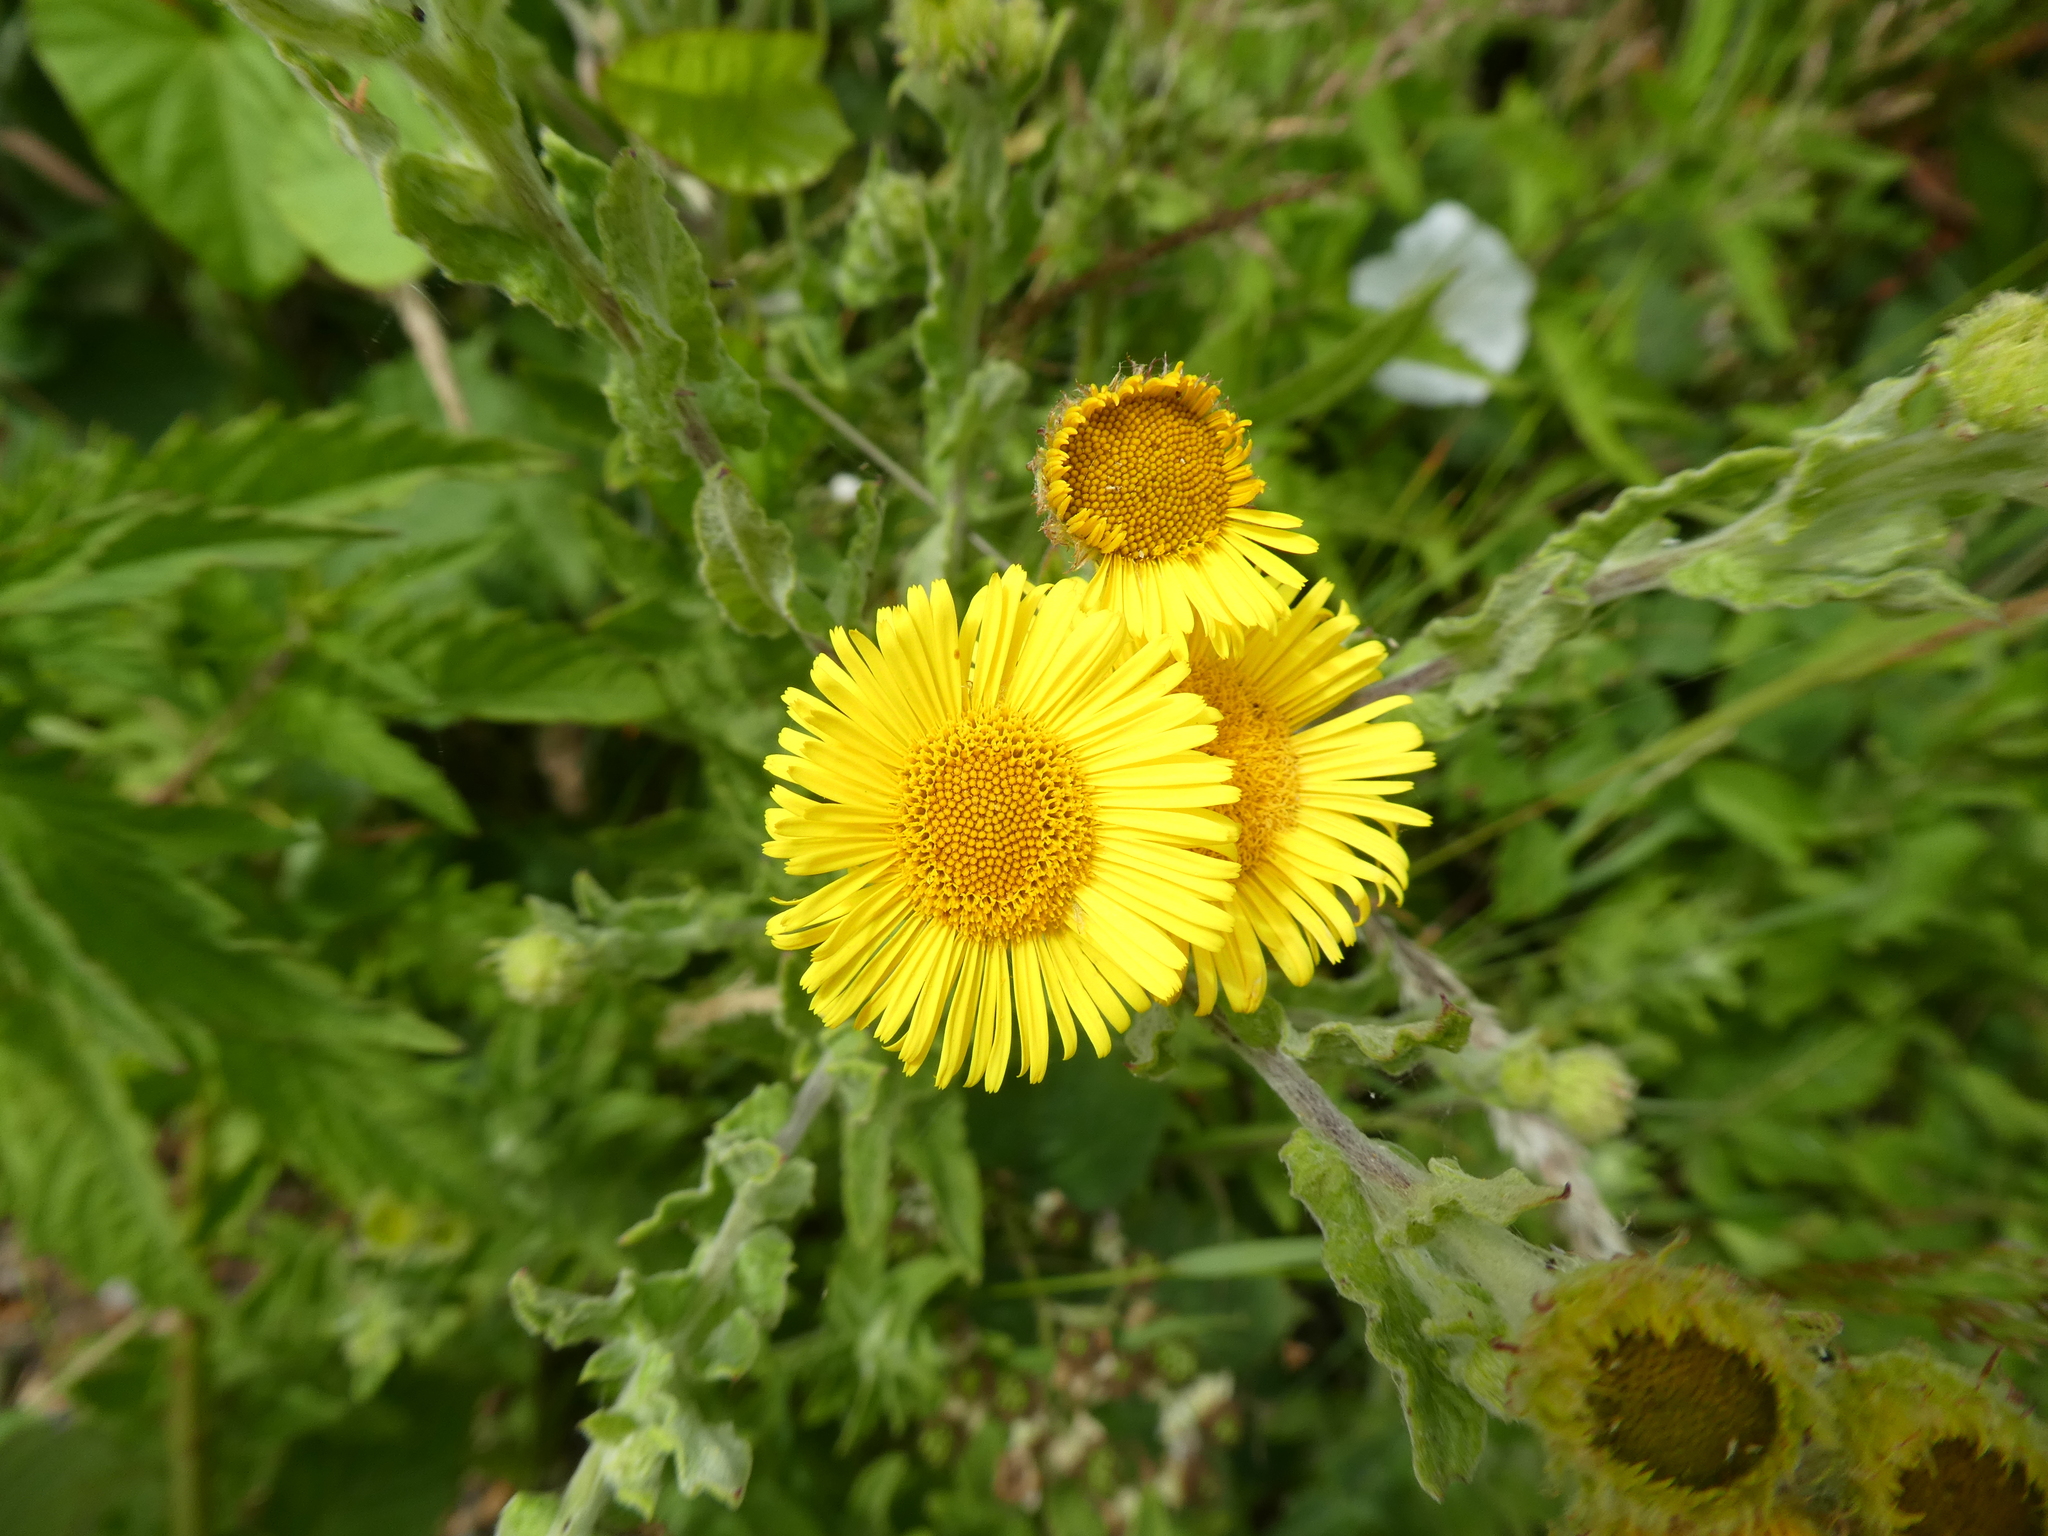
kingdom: Plantae
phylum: Tracheophyta
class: Magnoliopsida
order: Asterales
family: Asteraceae
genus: Pulicaria
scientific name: Pulicaria dysenterica
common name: Common fleabane
